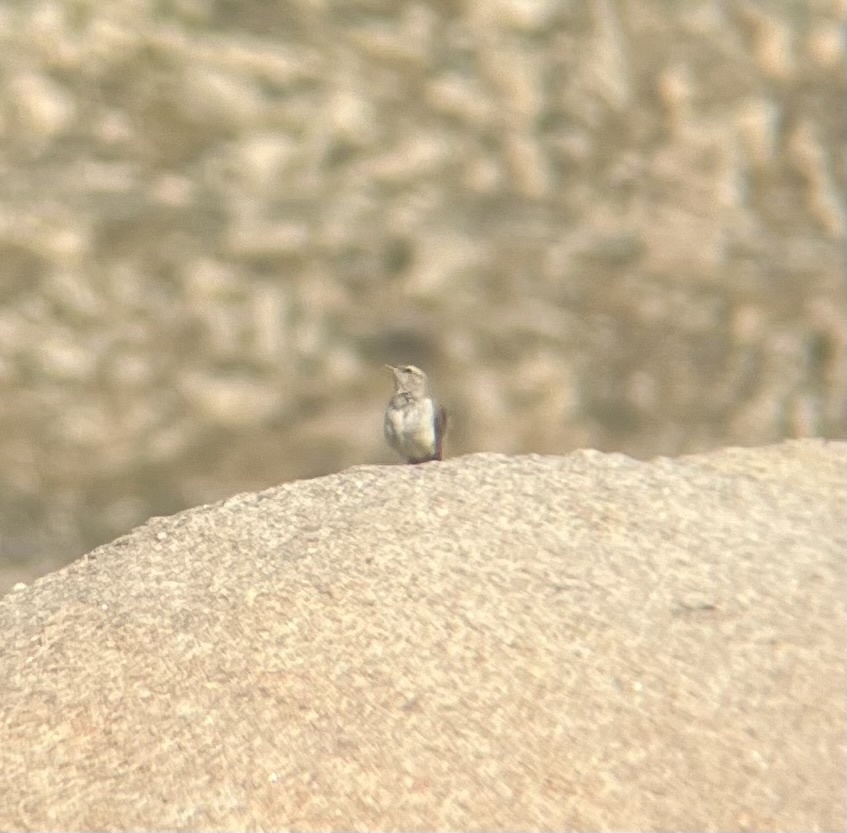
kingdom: Animalia
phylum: Chordata
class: Aves
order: Passeriformes
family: Troglodytidae
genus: Salpinctes
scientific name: Salpinctes obsoletus
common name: Rock wren
